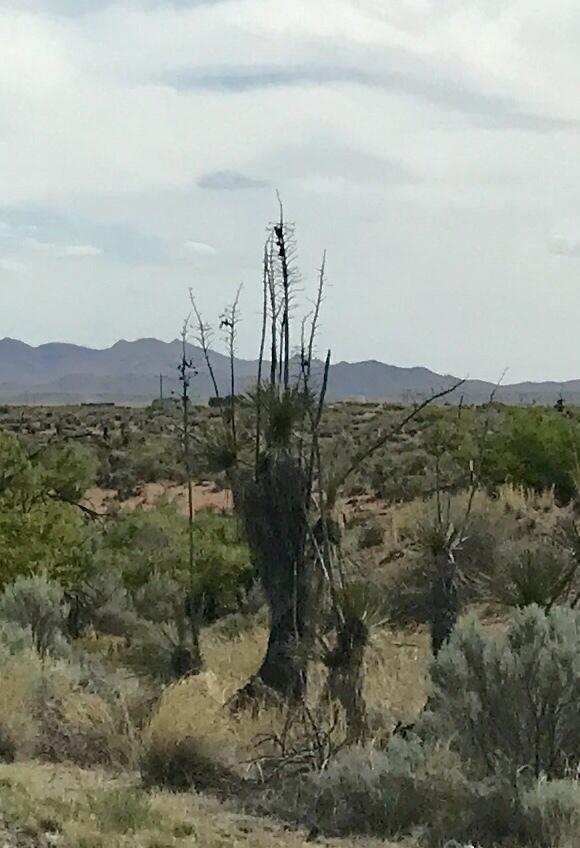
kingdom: Plantae
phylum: Tracheophyta
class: Liliopsida
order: Asparagales
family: Asparagaceae
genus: Yucca
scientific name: Yucca elata
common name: Palmella
